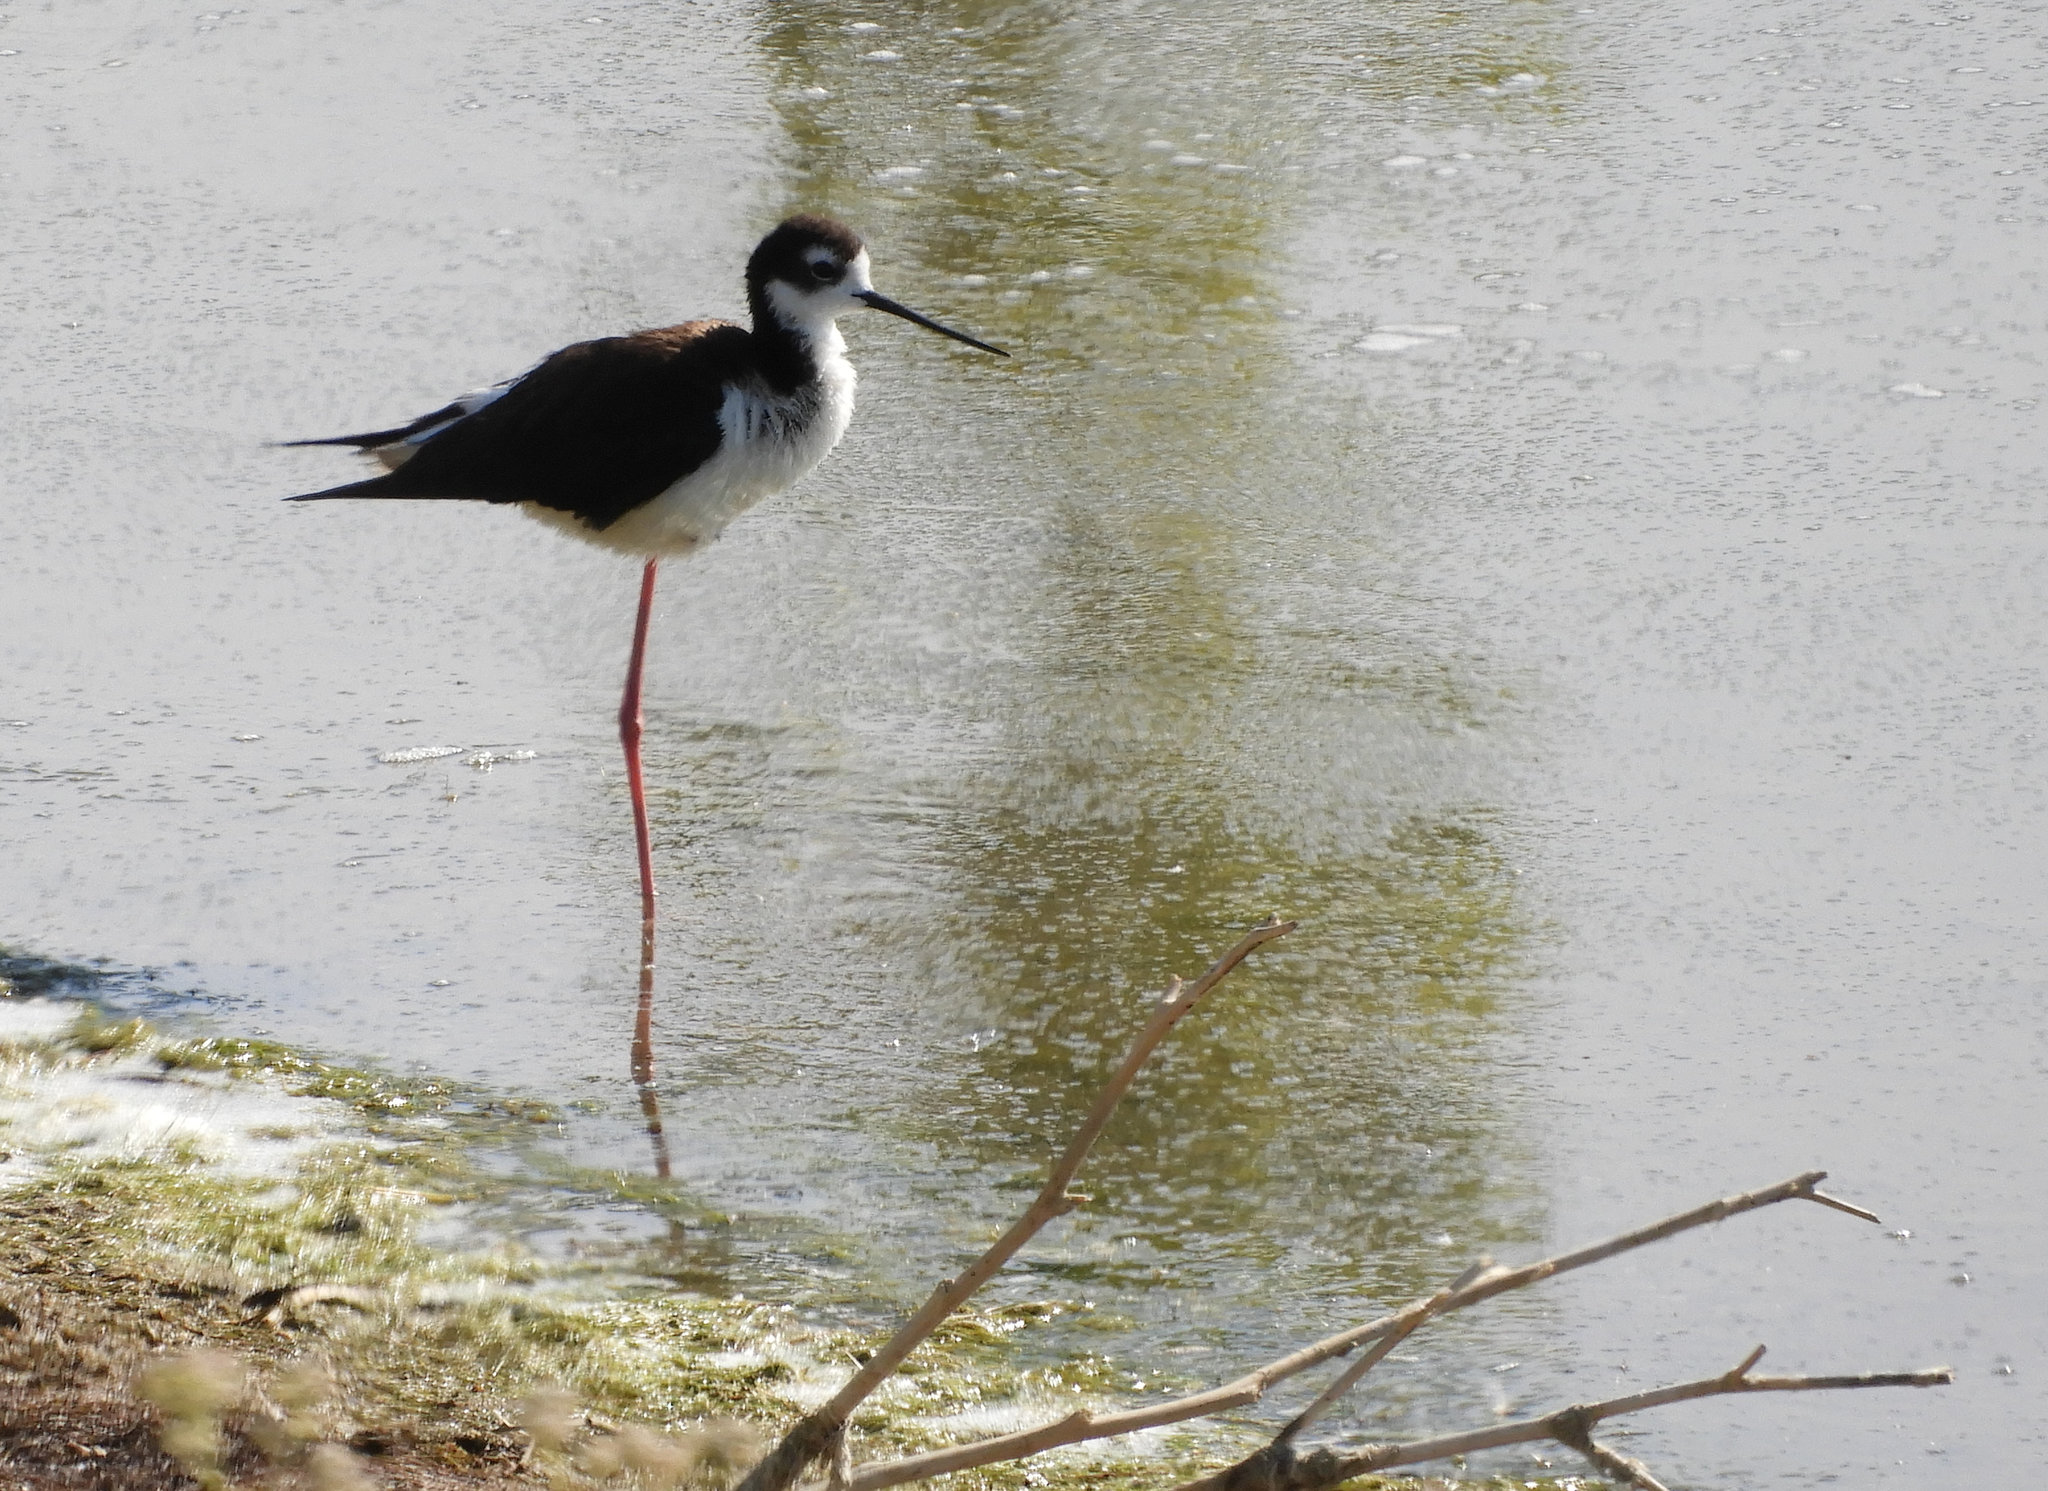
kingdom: Animalia
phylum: Chordata
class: Aves
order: Charadriiformes
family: Recurvirostridae
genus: Himantopus
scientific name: Himantopus mexicanus
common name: Black-necked stilt
